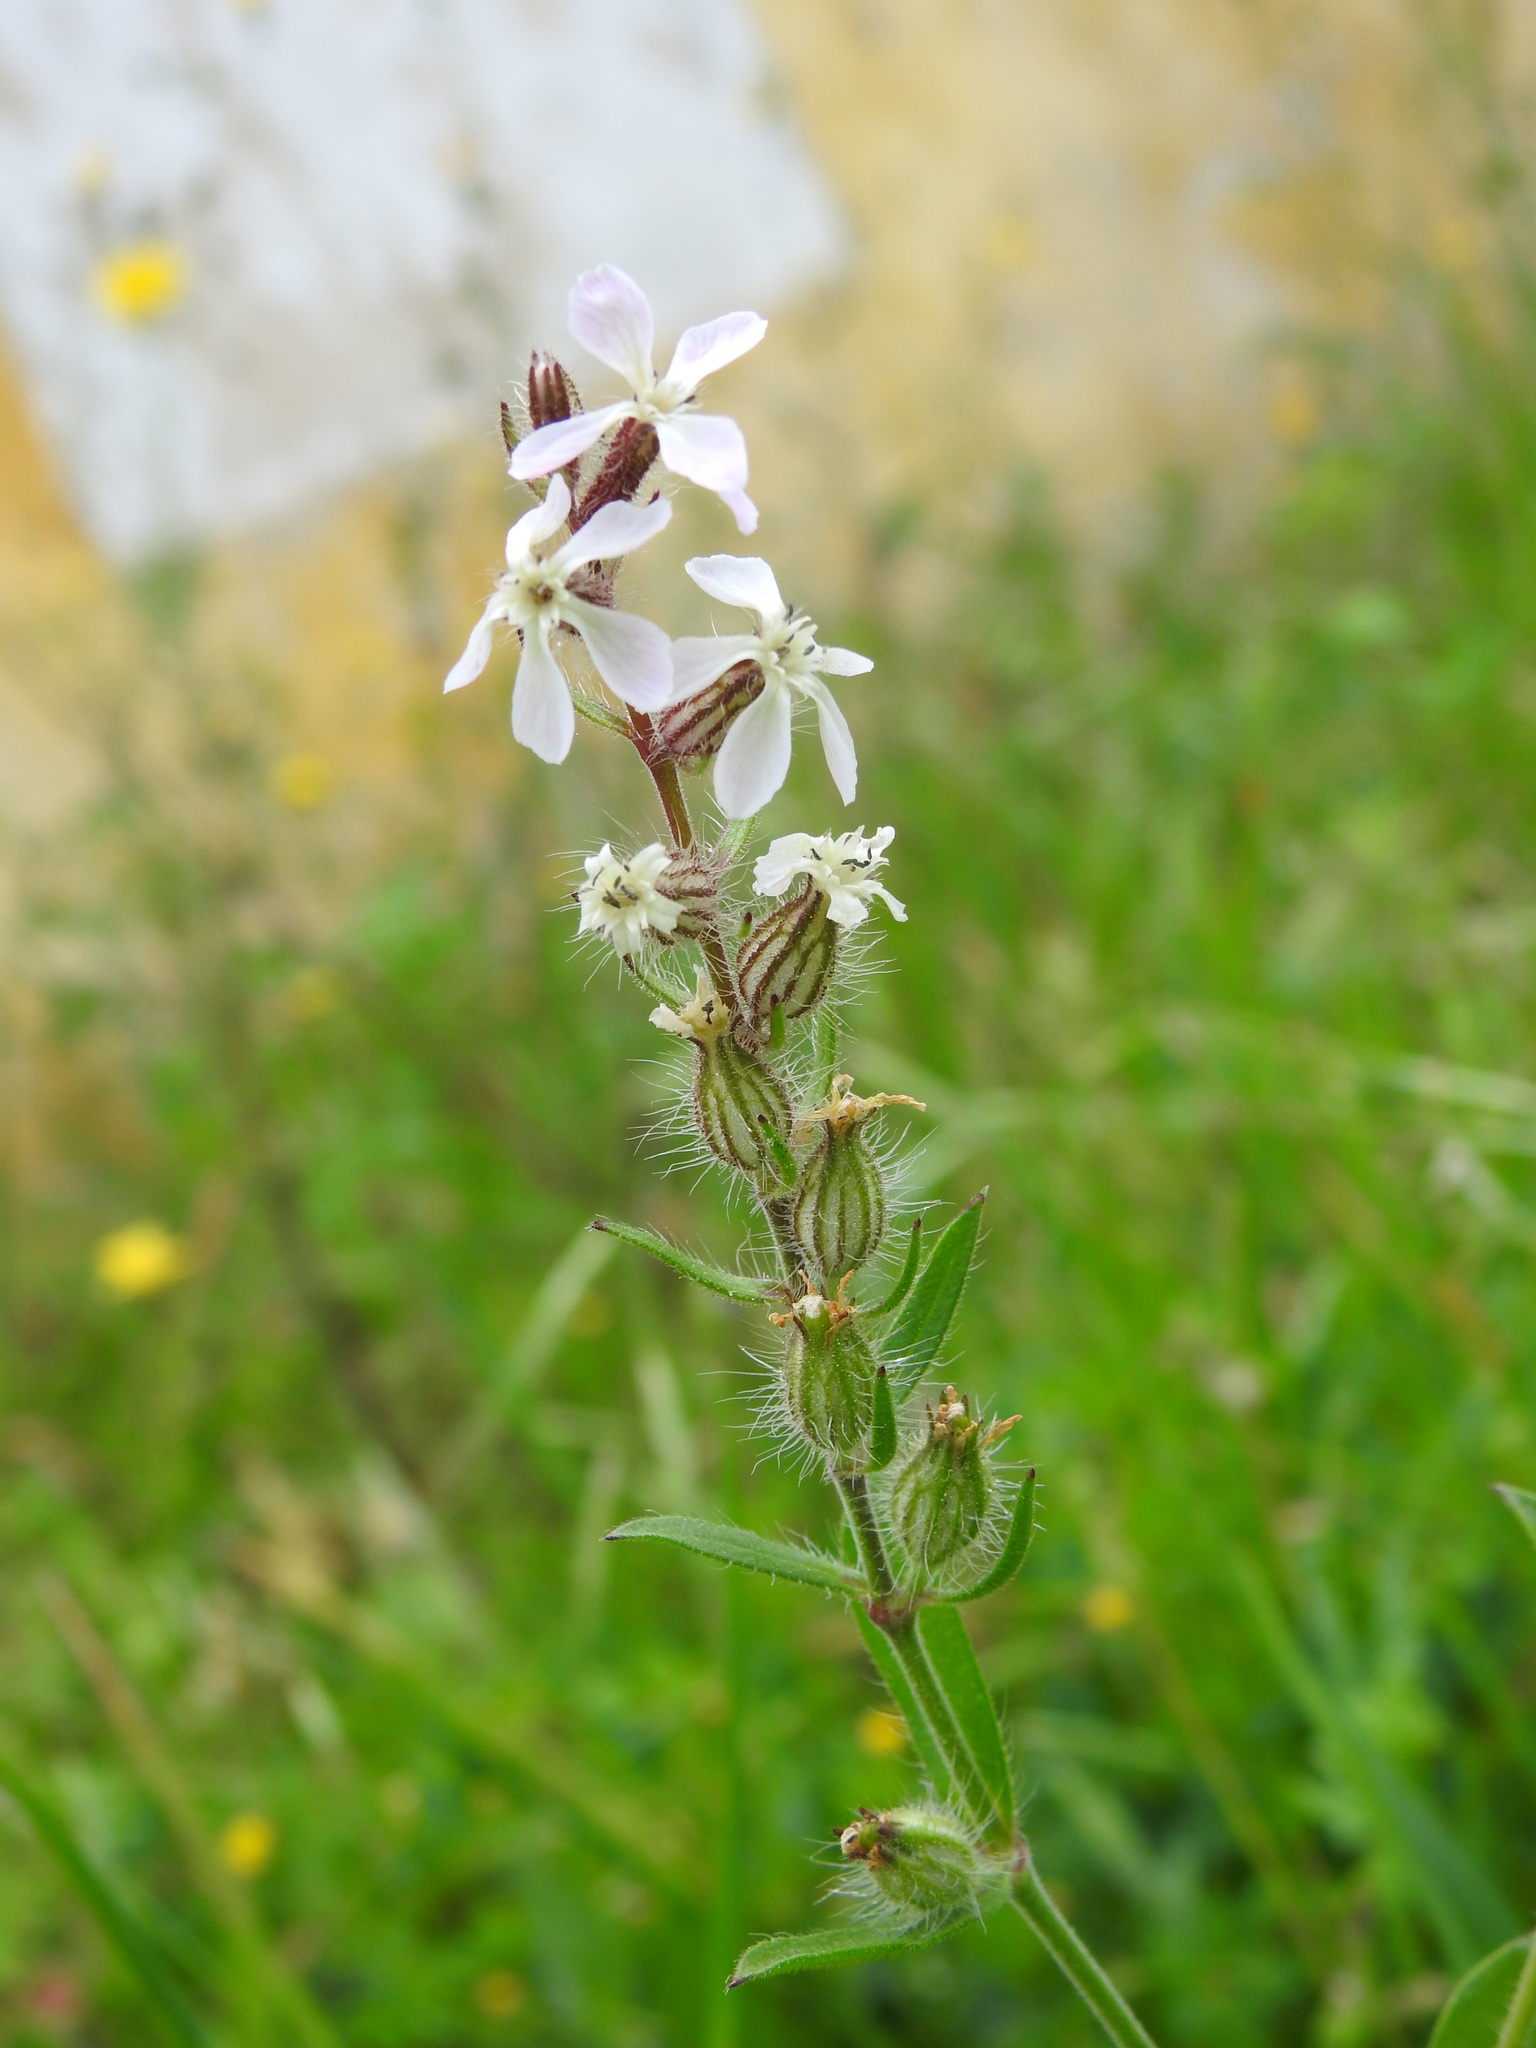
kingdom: Plantae
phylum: Tracheophyta
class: Magnoliopsida
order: Caryophyllales
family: Caryophyllaceae
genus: Silene
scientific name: Silene gallica
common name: Small-flowered catchfly
